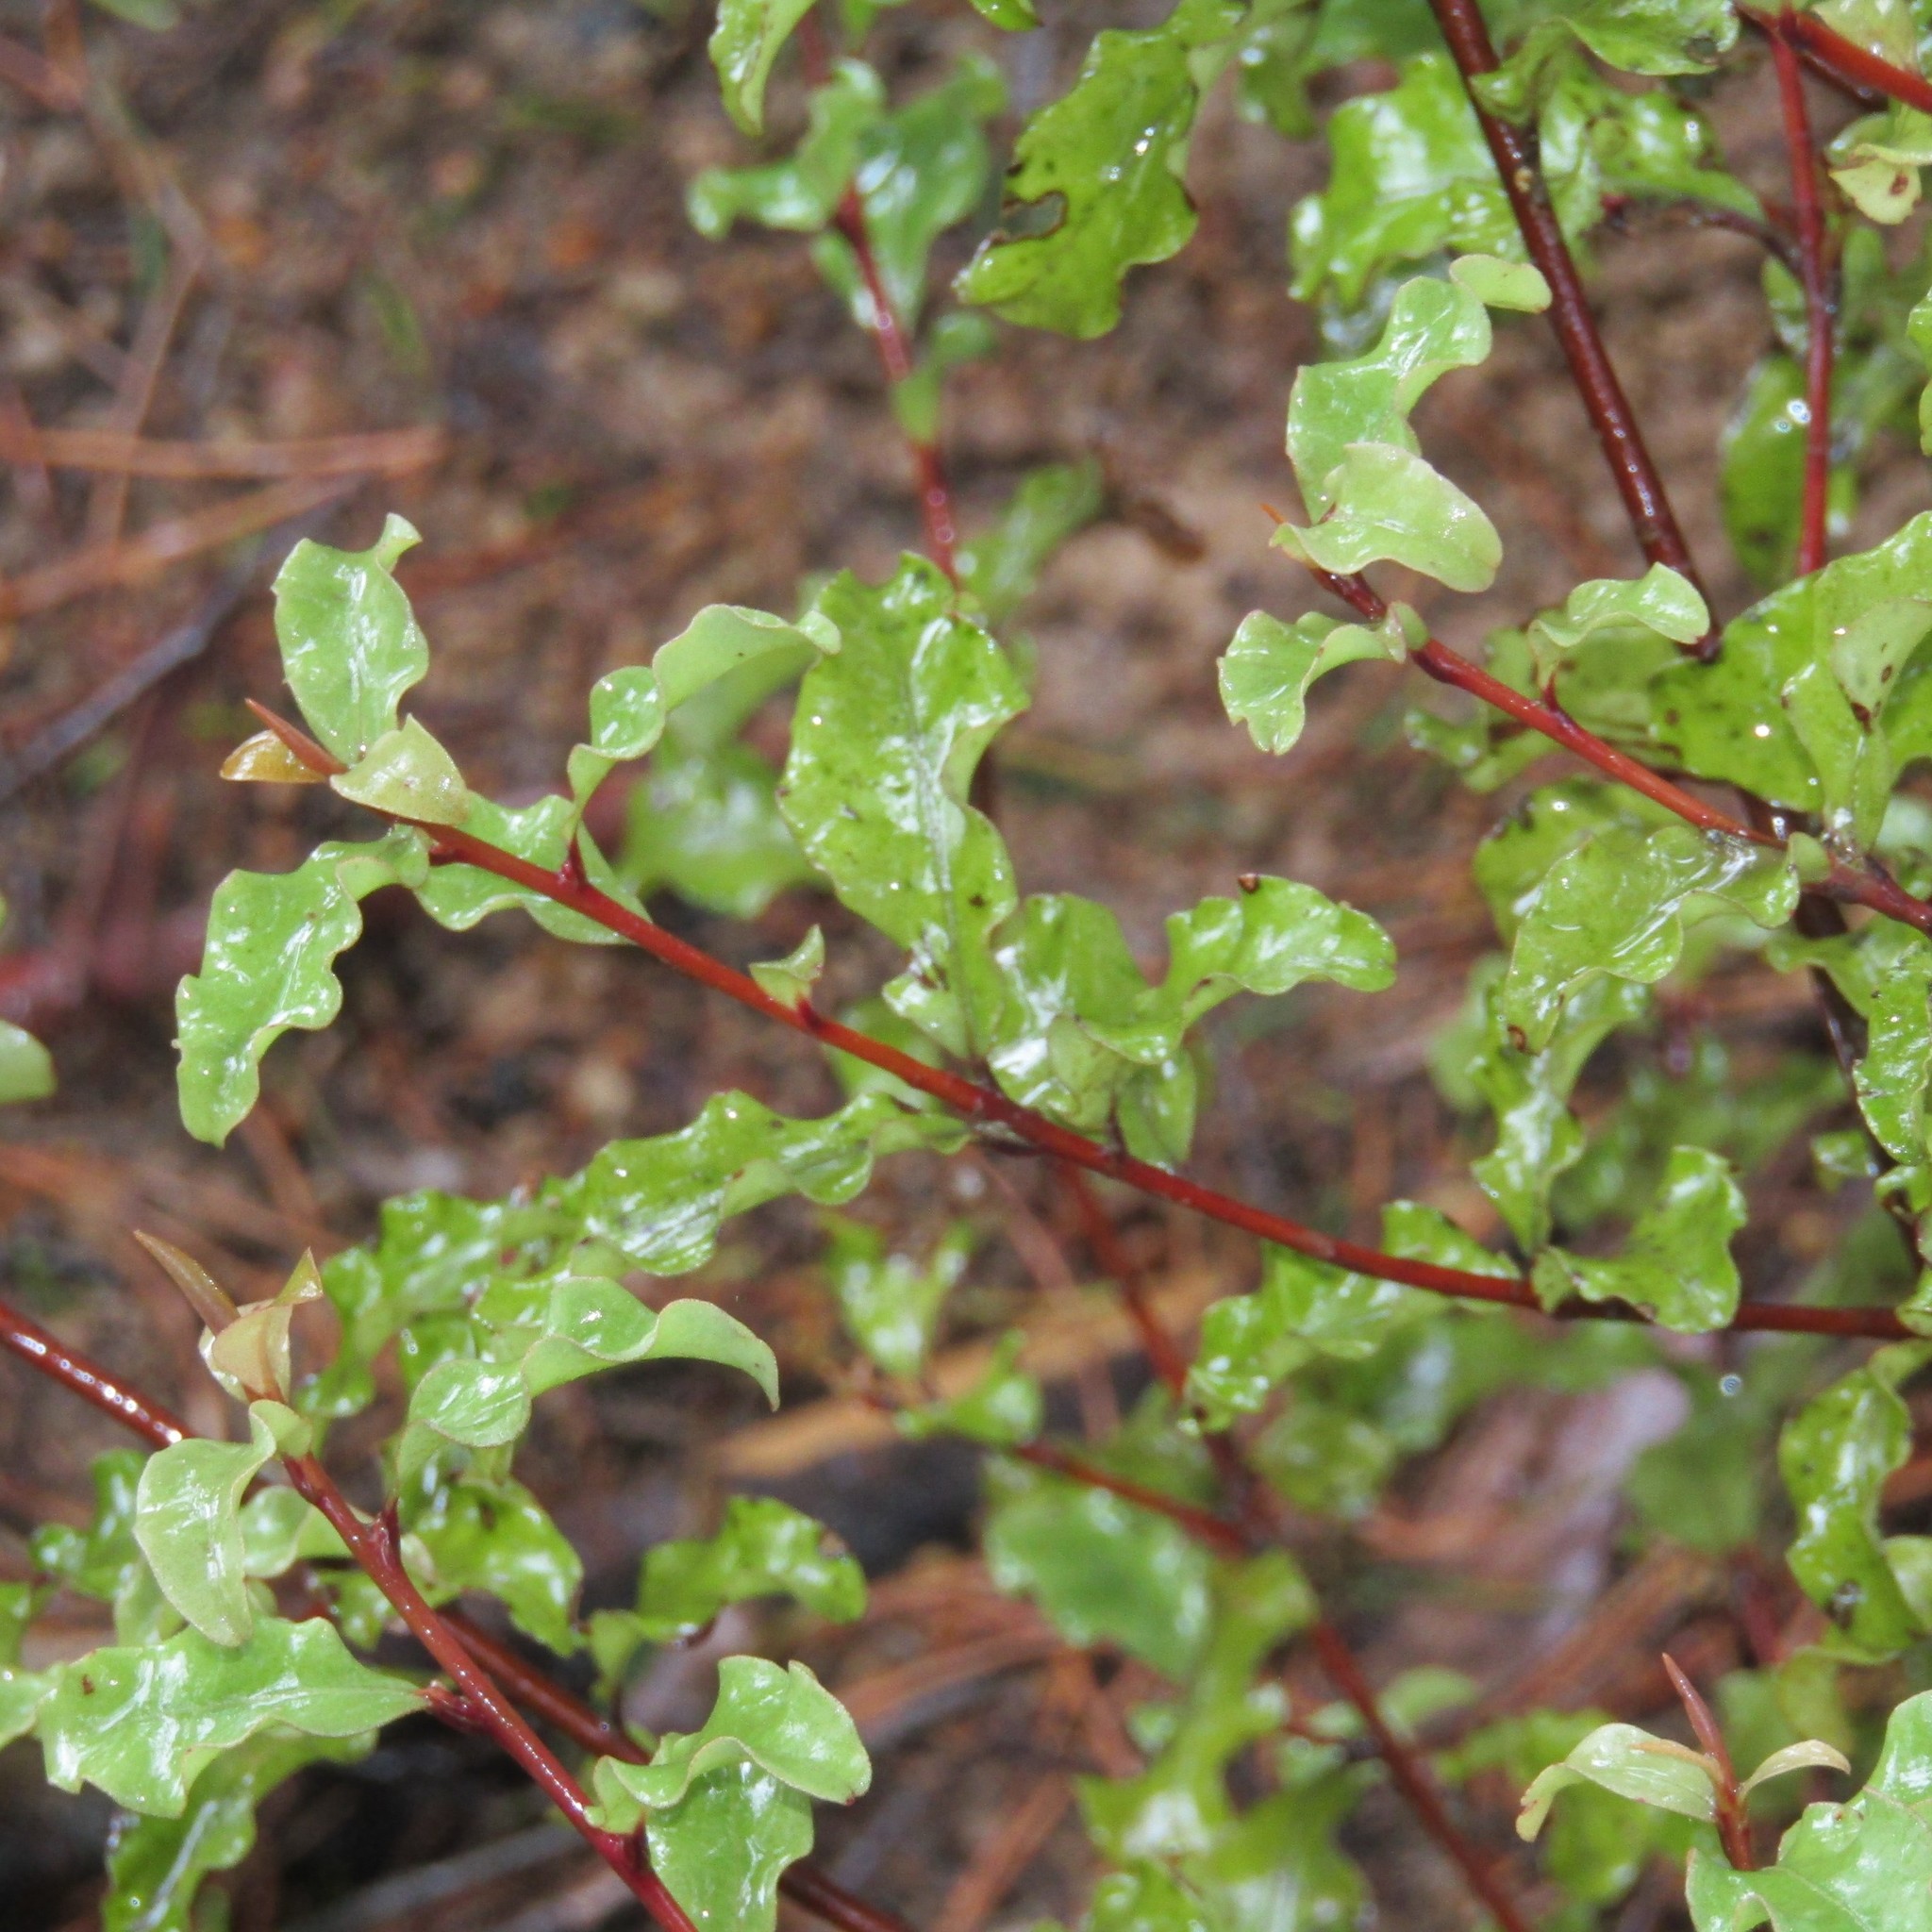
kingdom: Plantae
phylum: Tracheophyta
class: Magnoliopsida
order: Ericales
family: Primulaceae
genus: Myrsine
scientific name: Myrsine australis
